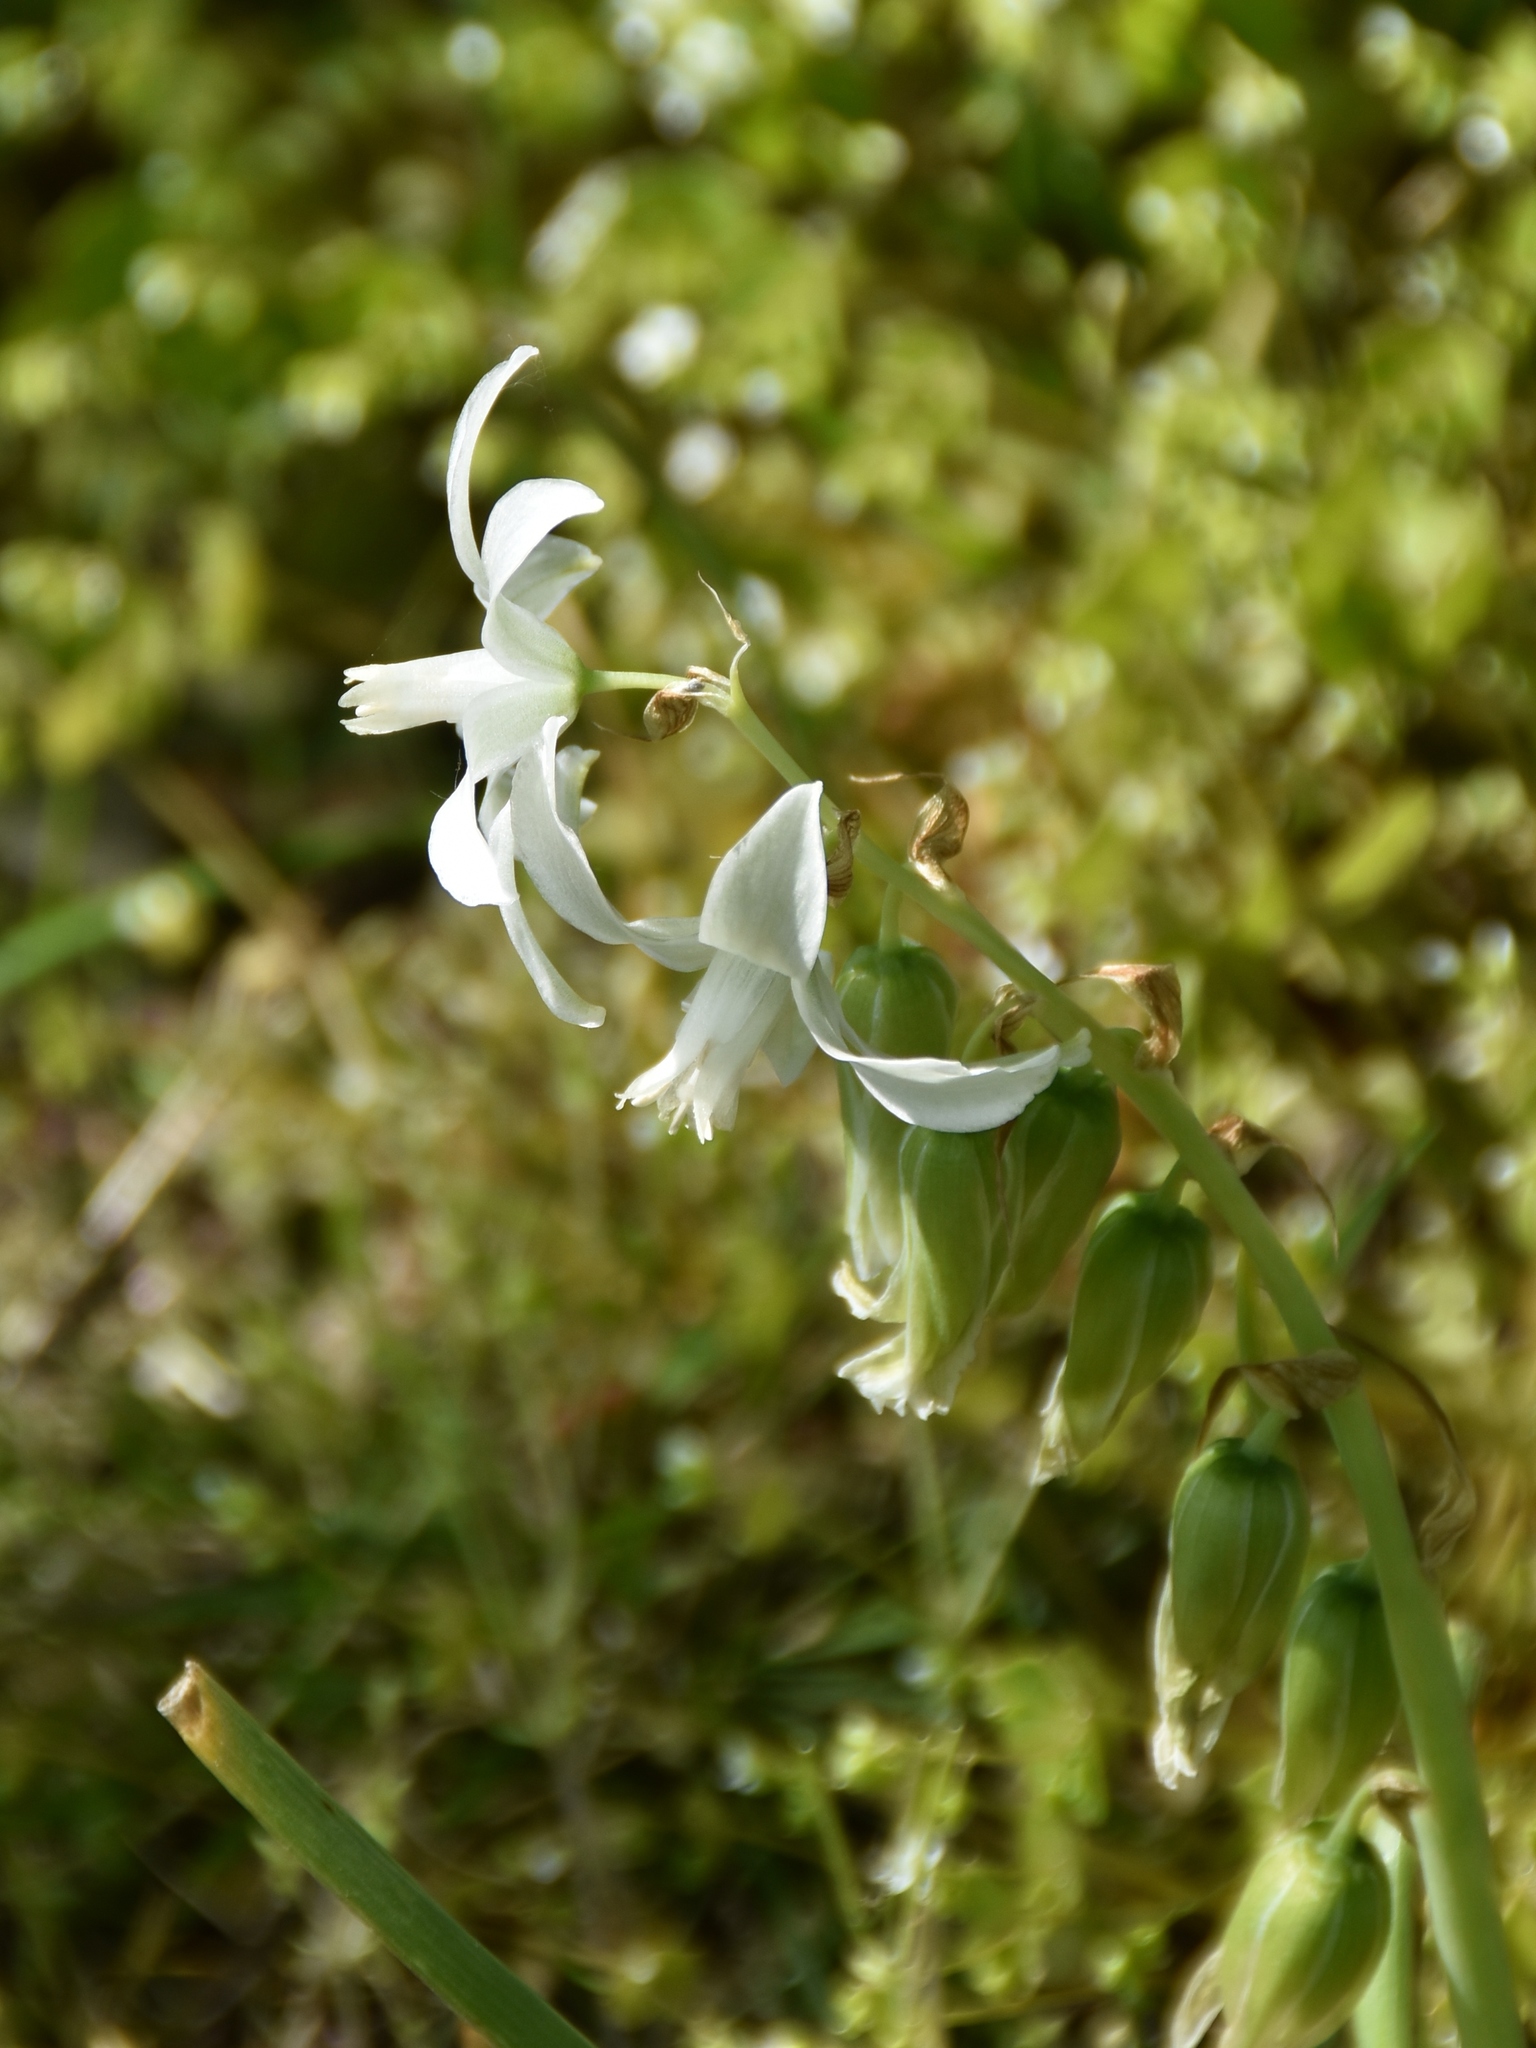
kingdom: Plantae
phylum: Tracheophyta
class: Liliopsida
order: Asparagales
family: Asparagaceae
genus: Ornithogalum
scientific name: Ornithogalum nutans
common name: Drooping star-of-bethlehem
